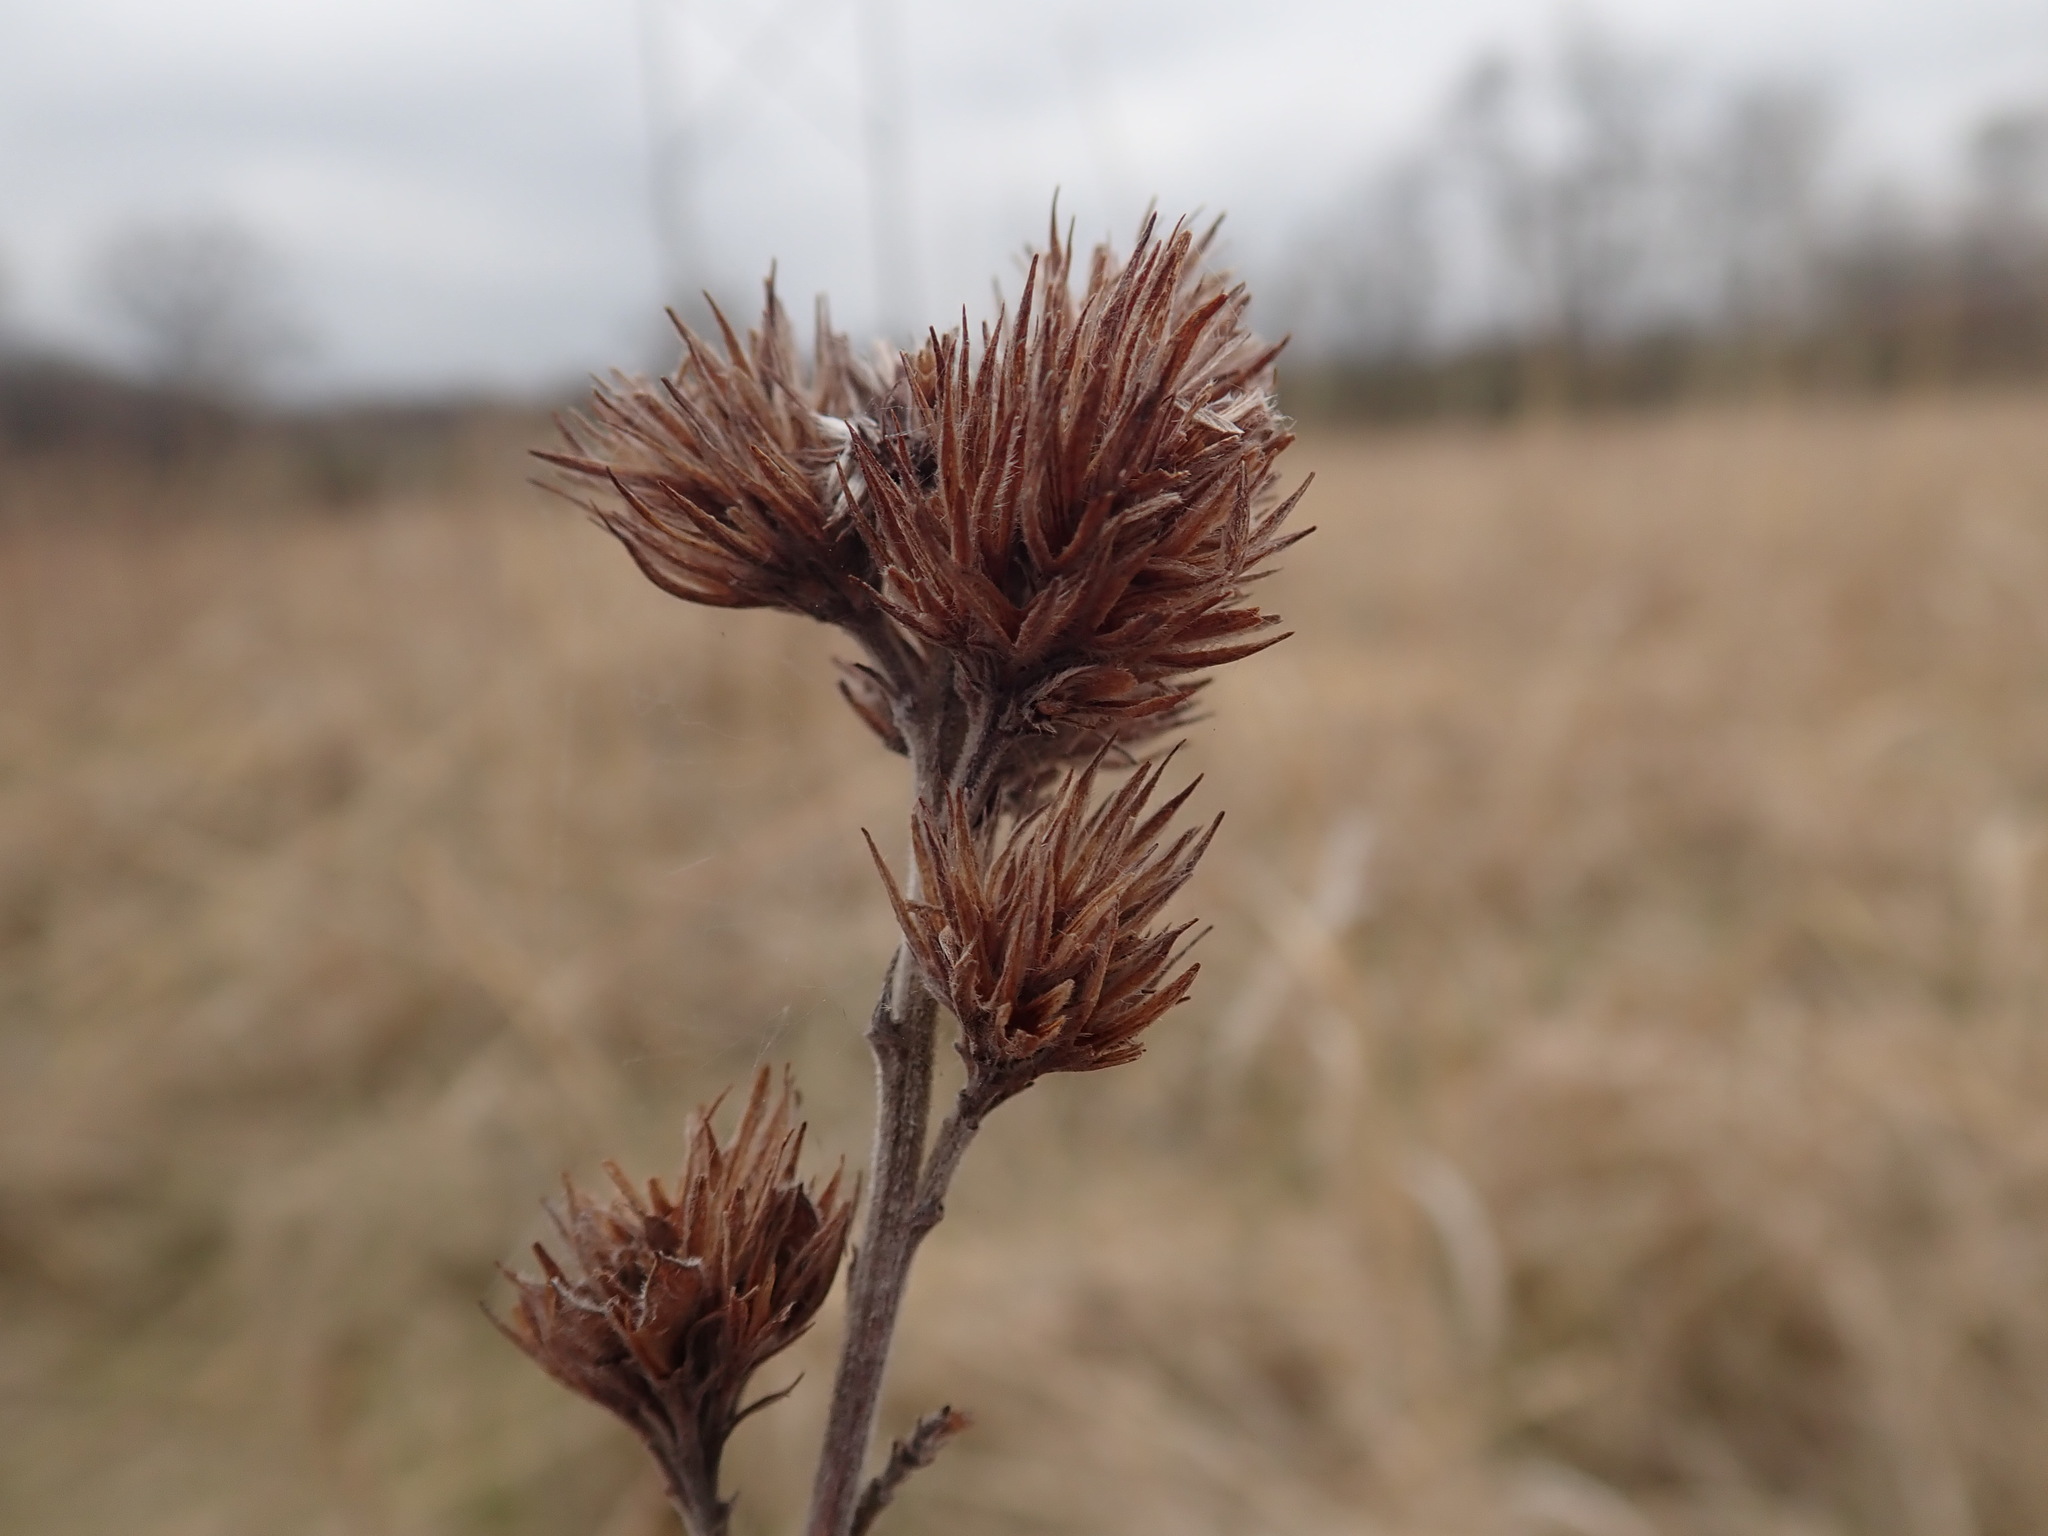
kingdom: Plantae
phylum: Tracheophyta
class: Magnoliopsida
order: Fabales
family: Fabaceae
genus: Lespedeza
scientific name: Lespedeza capitata
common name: Dusty clover
